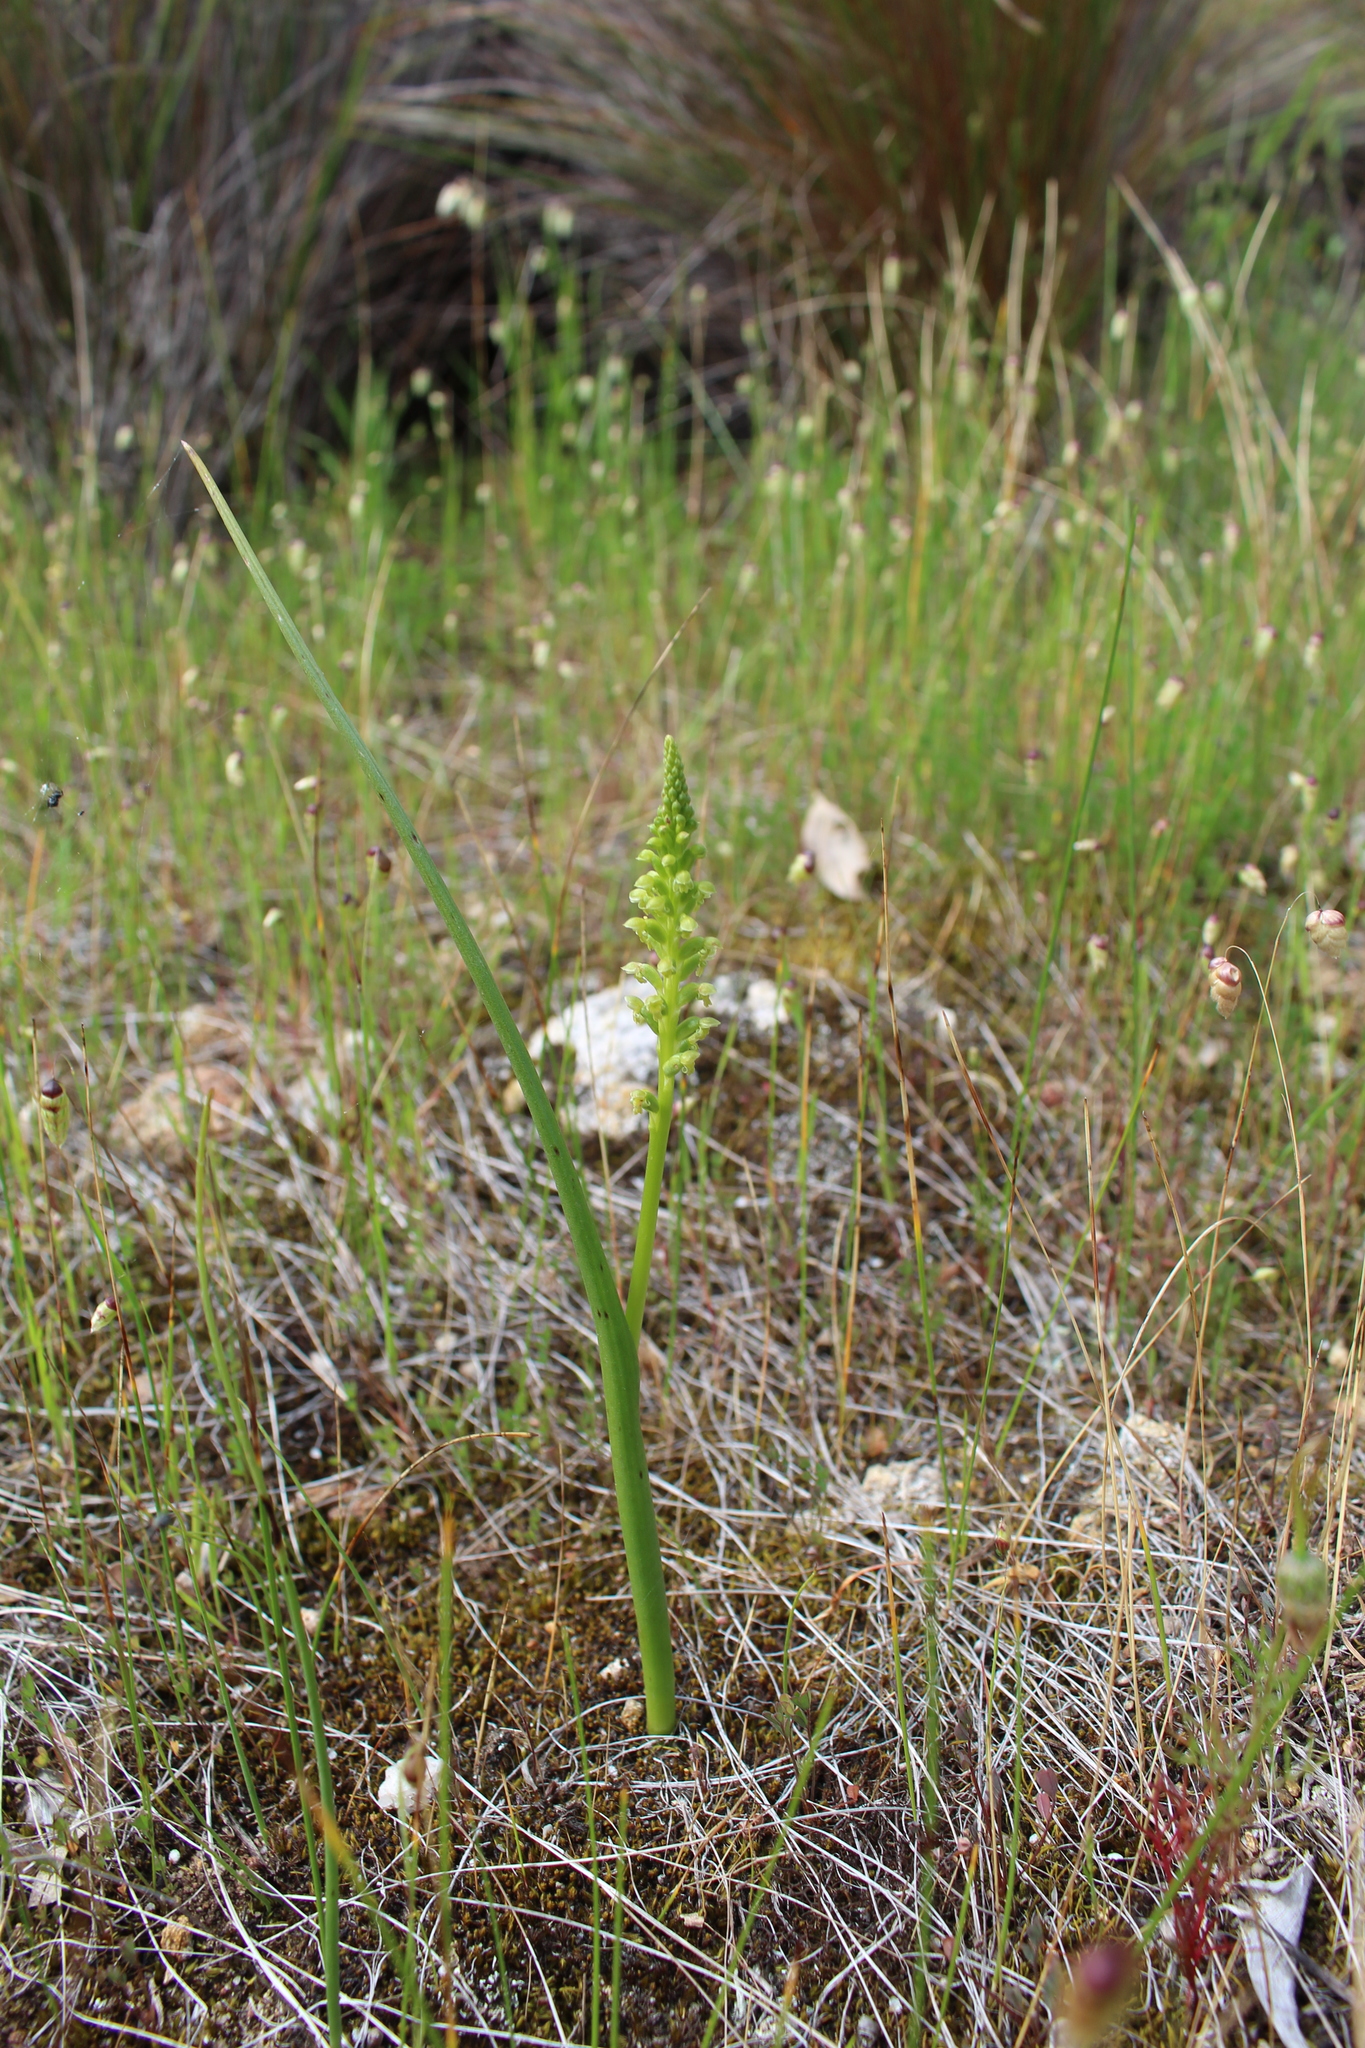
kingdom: Plantae
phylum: Tracheophyta
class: Liliopsida
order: Asparagales
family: Orchidaceae
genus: Microtis
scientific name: Microtis media
